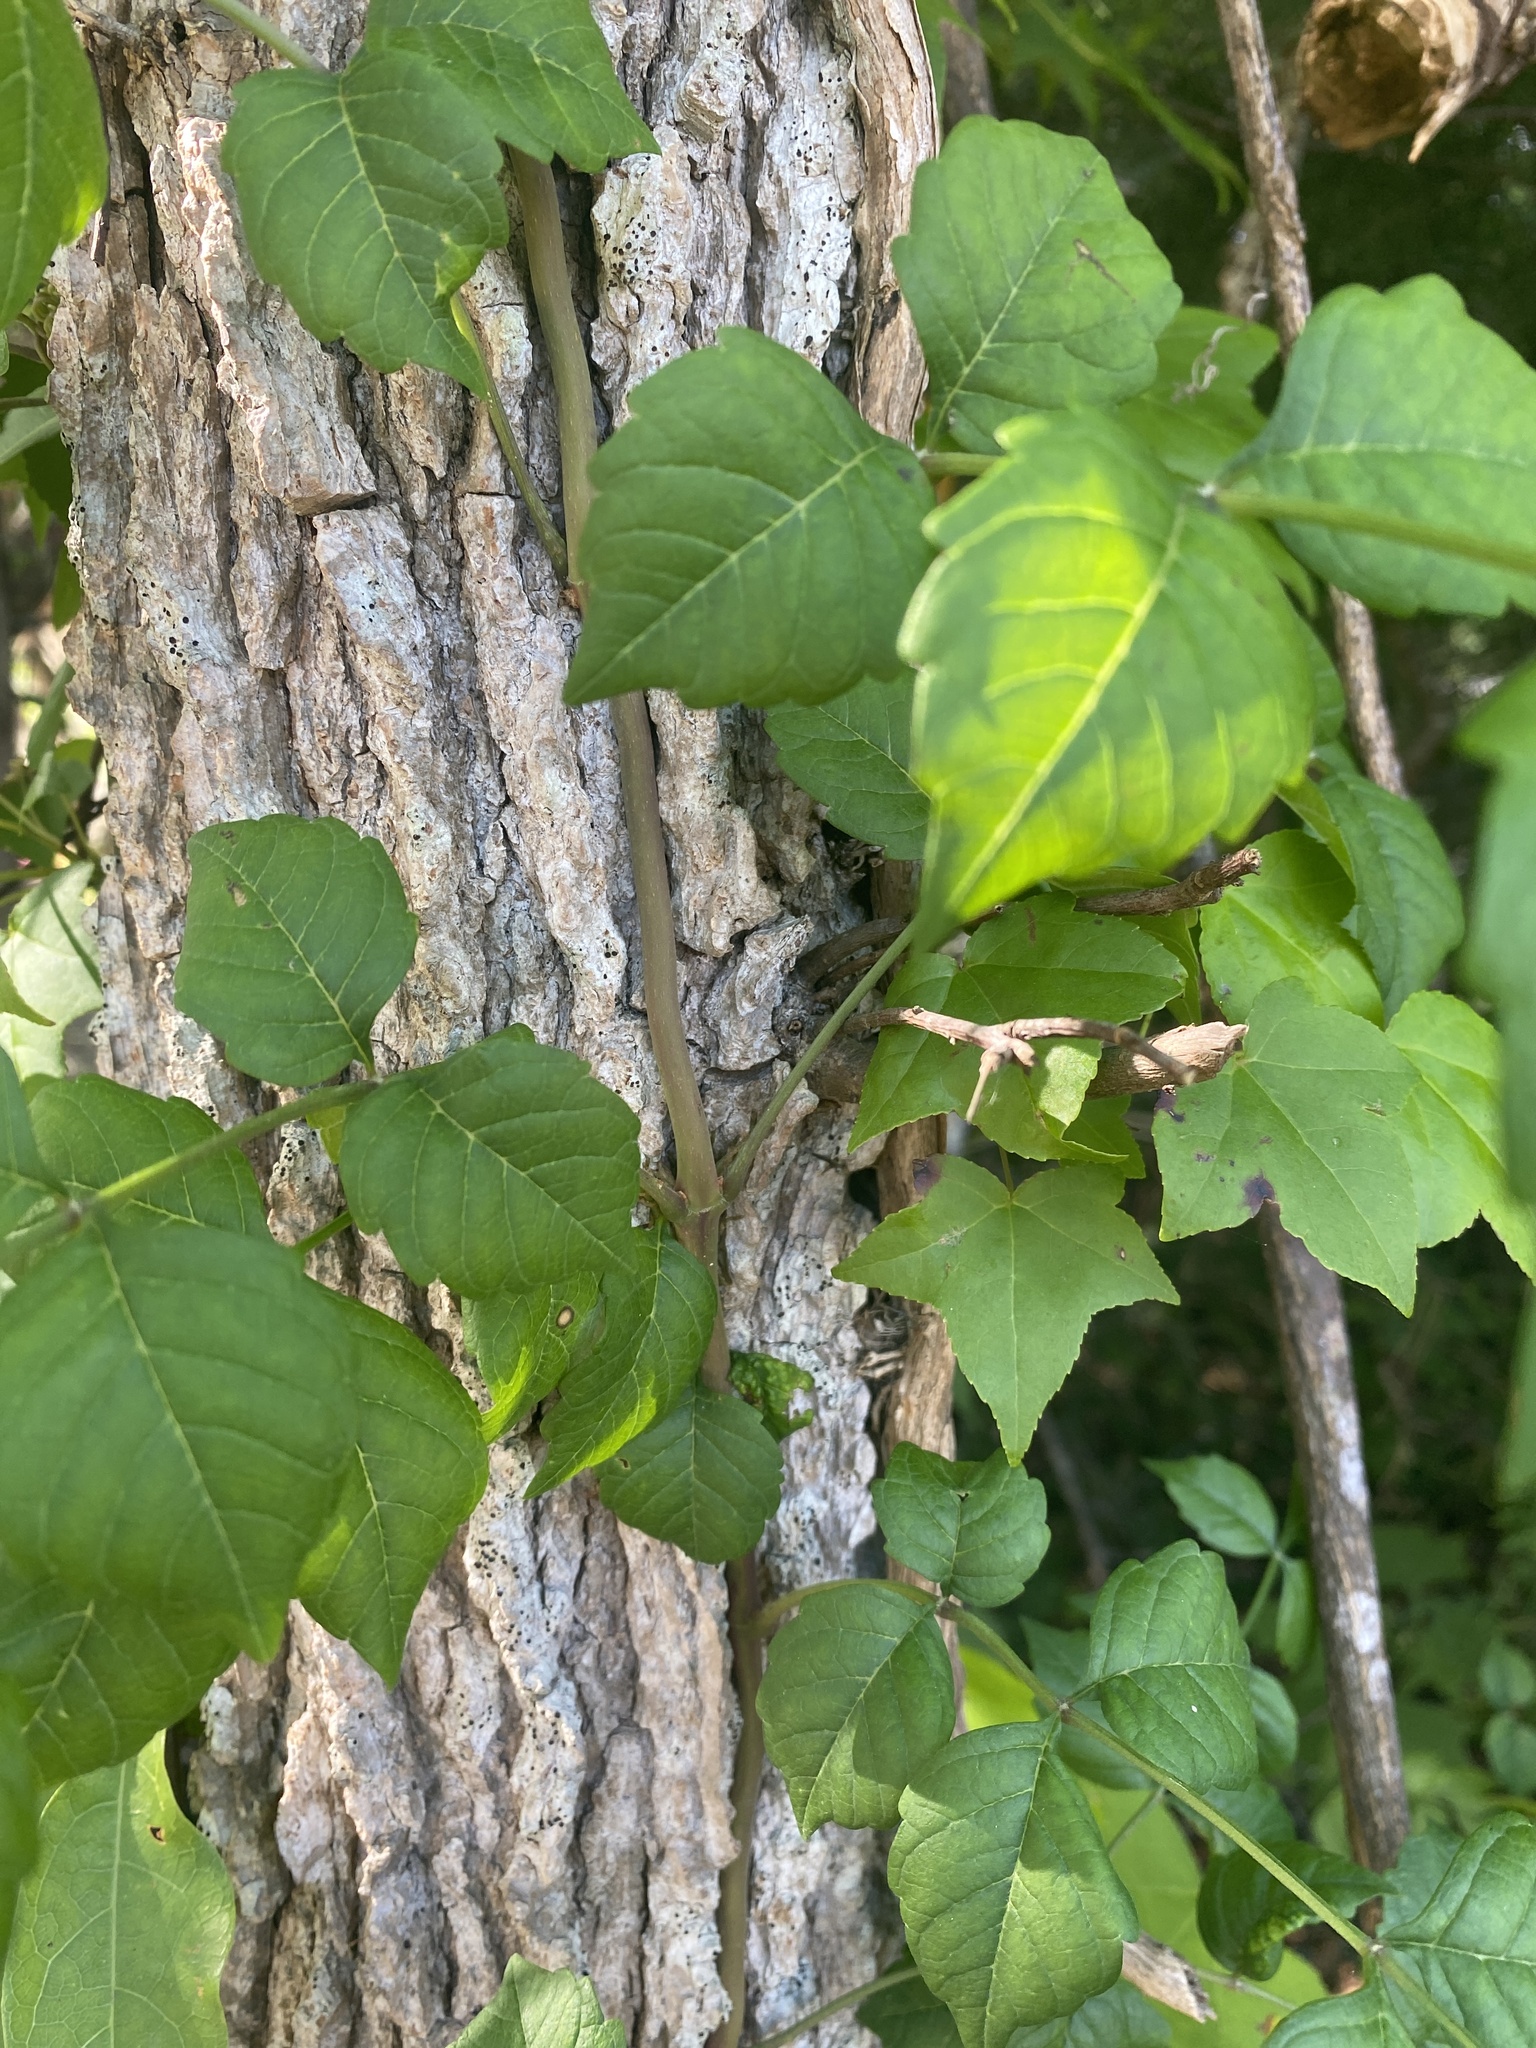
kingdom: Plantae
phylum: Tracheophyta
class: Magnoliopsida
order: Lamiales
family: Bignoniaceae
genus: Campsis
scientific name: Campsis radicans
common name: Trumpet-creeper
